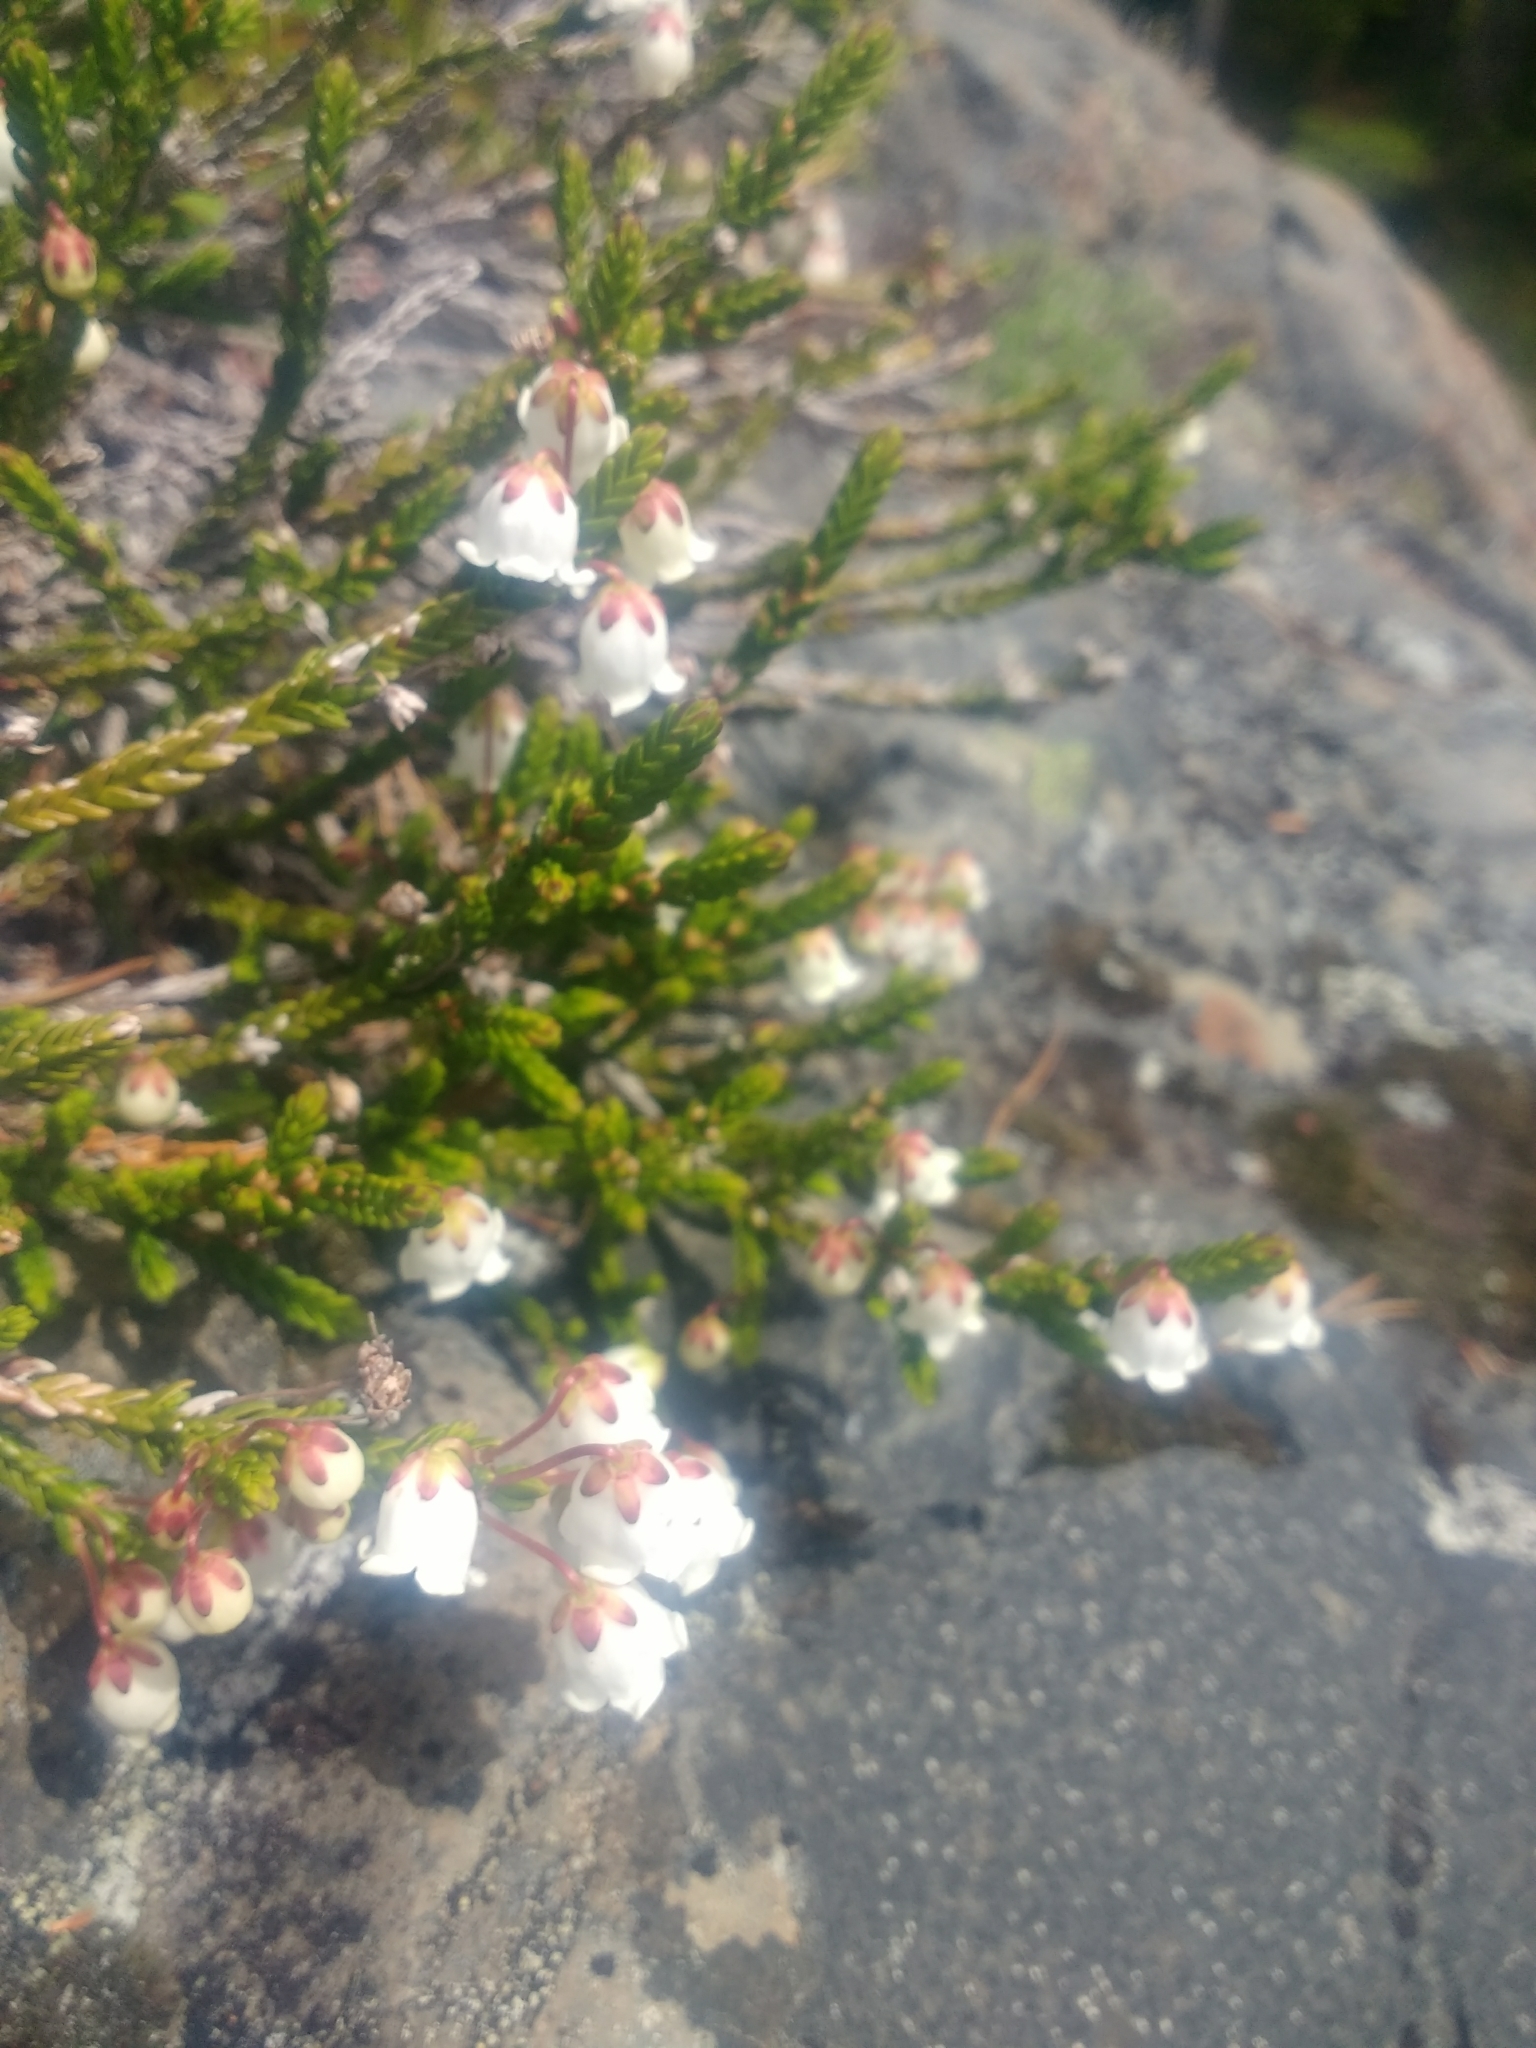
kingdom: Plantae
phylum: Tracheophyta
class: Magnoliopsida
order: Ericales
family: Ericaceae
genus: Cassiope
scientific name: Cassiope mertensiana
